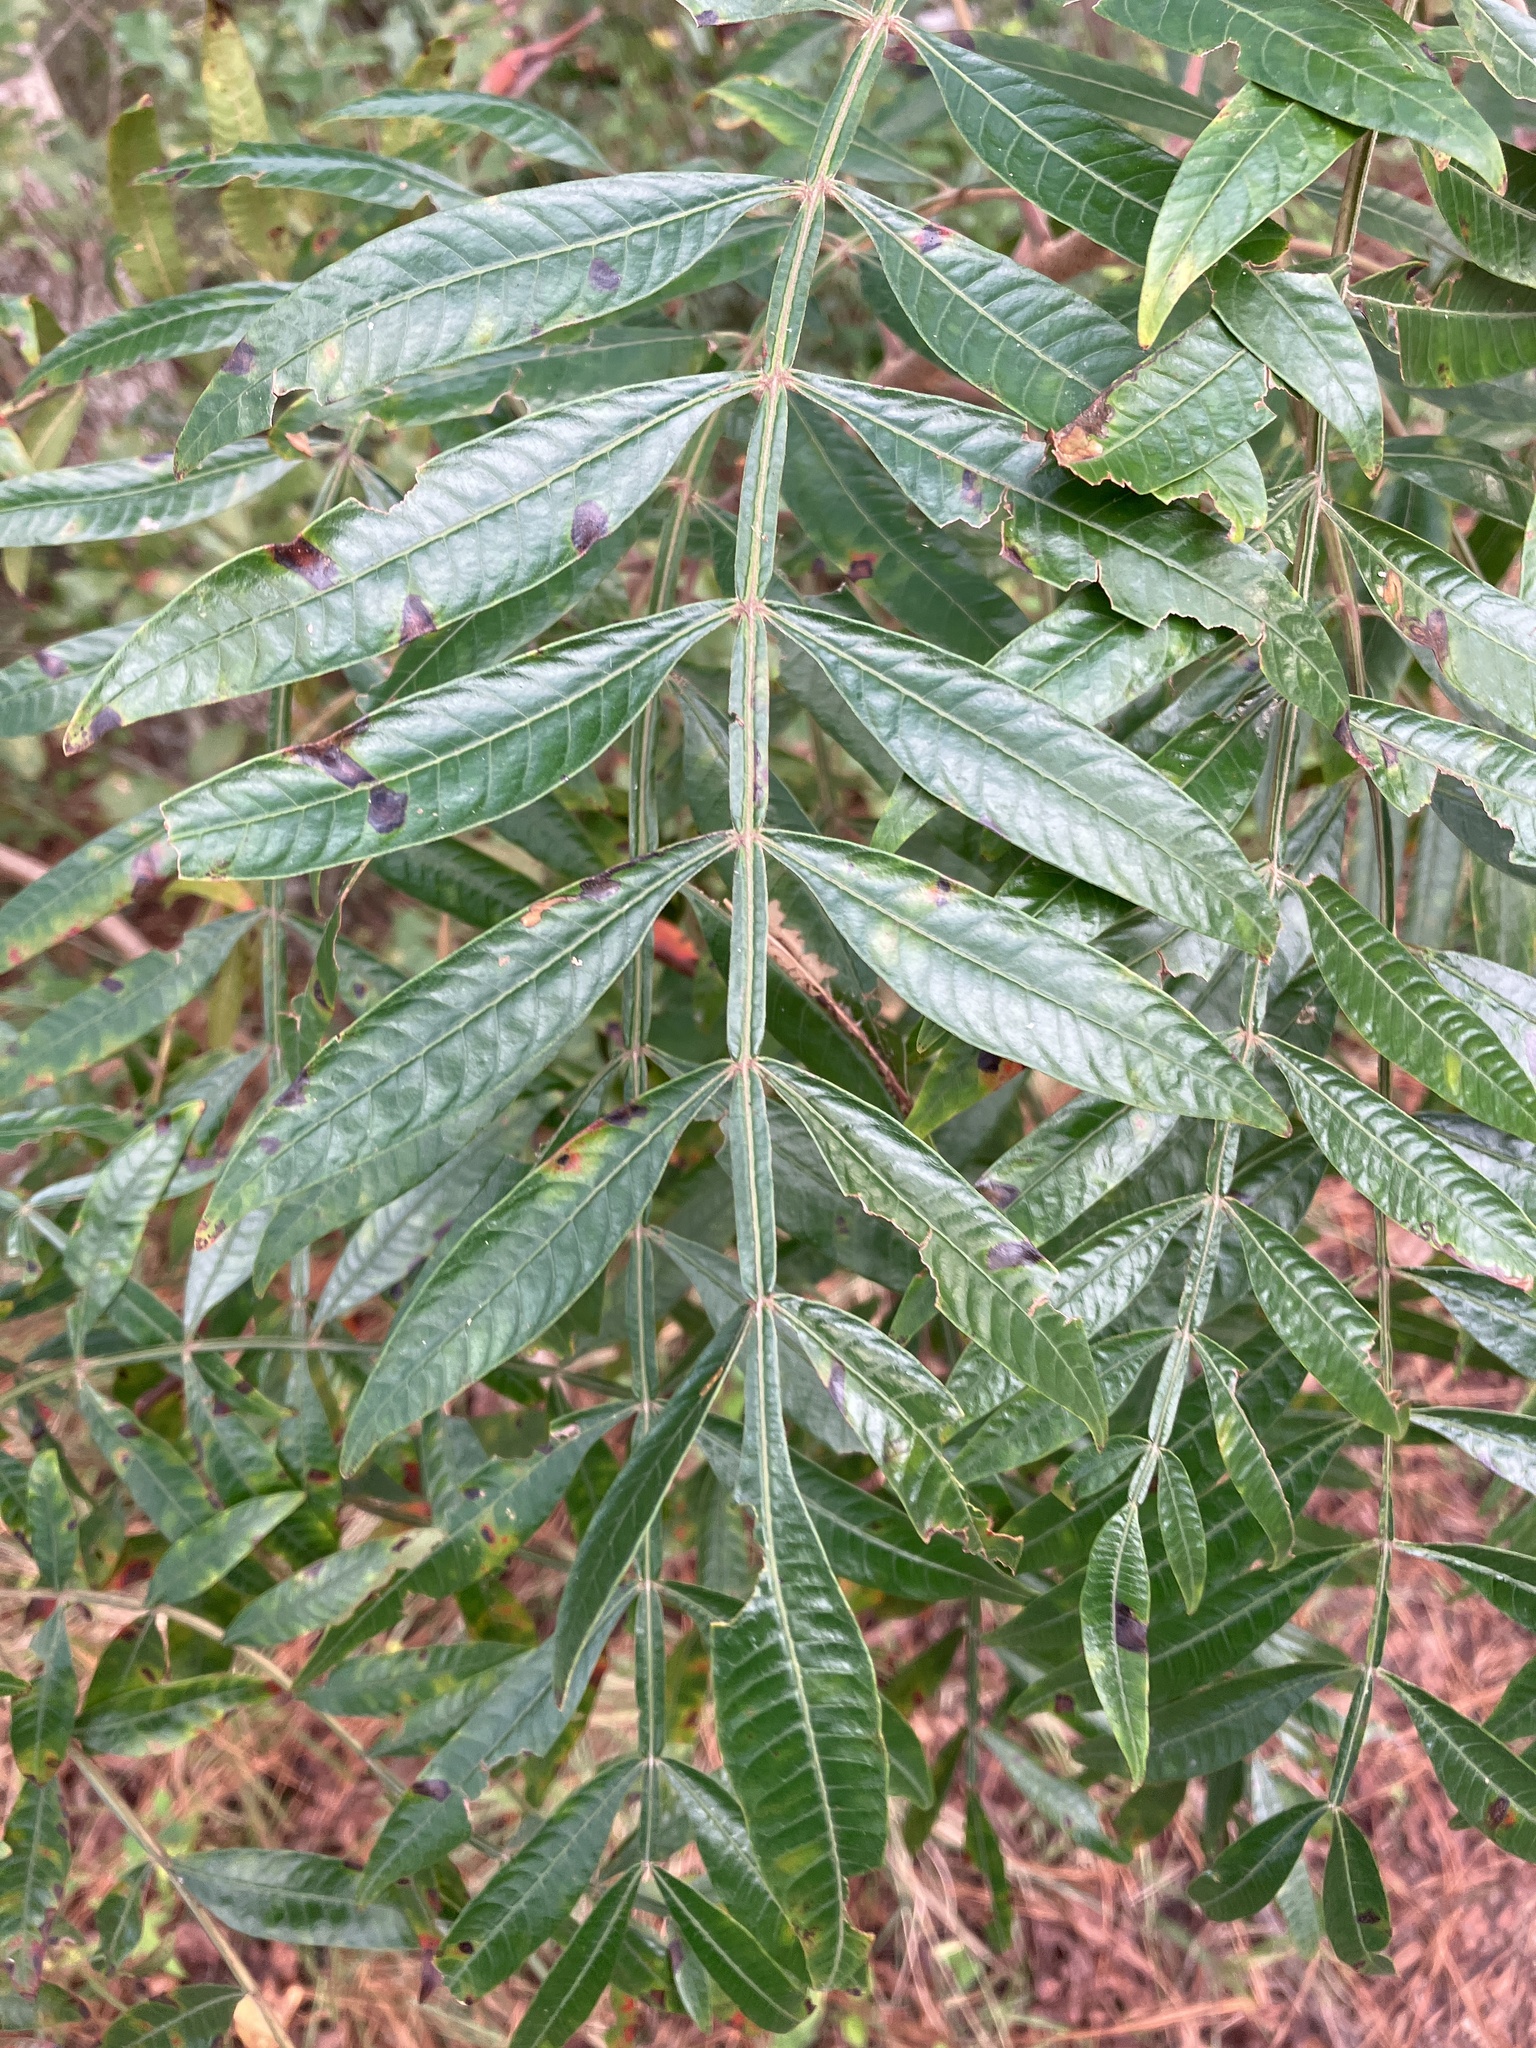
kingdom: Plantae
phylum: Tracheophyta
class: Magnoliopsida
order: Sapindales
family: Anacardiaceae
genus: Rhus
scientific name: Rhus copallina
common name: Shining sumac
